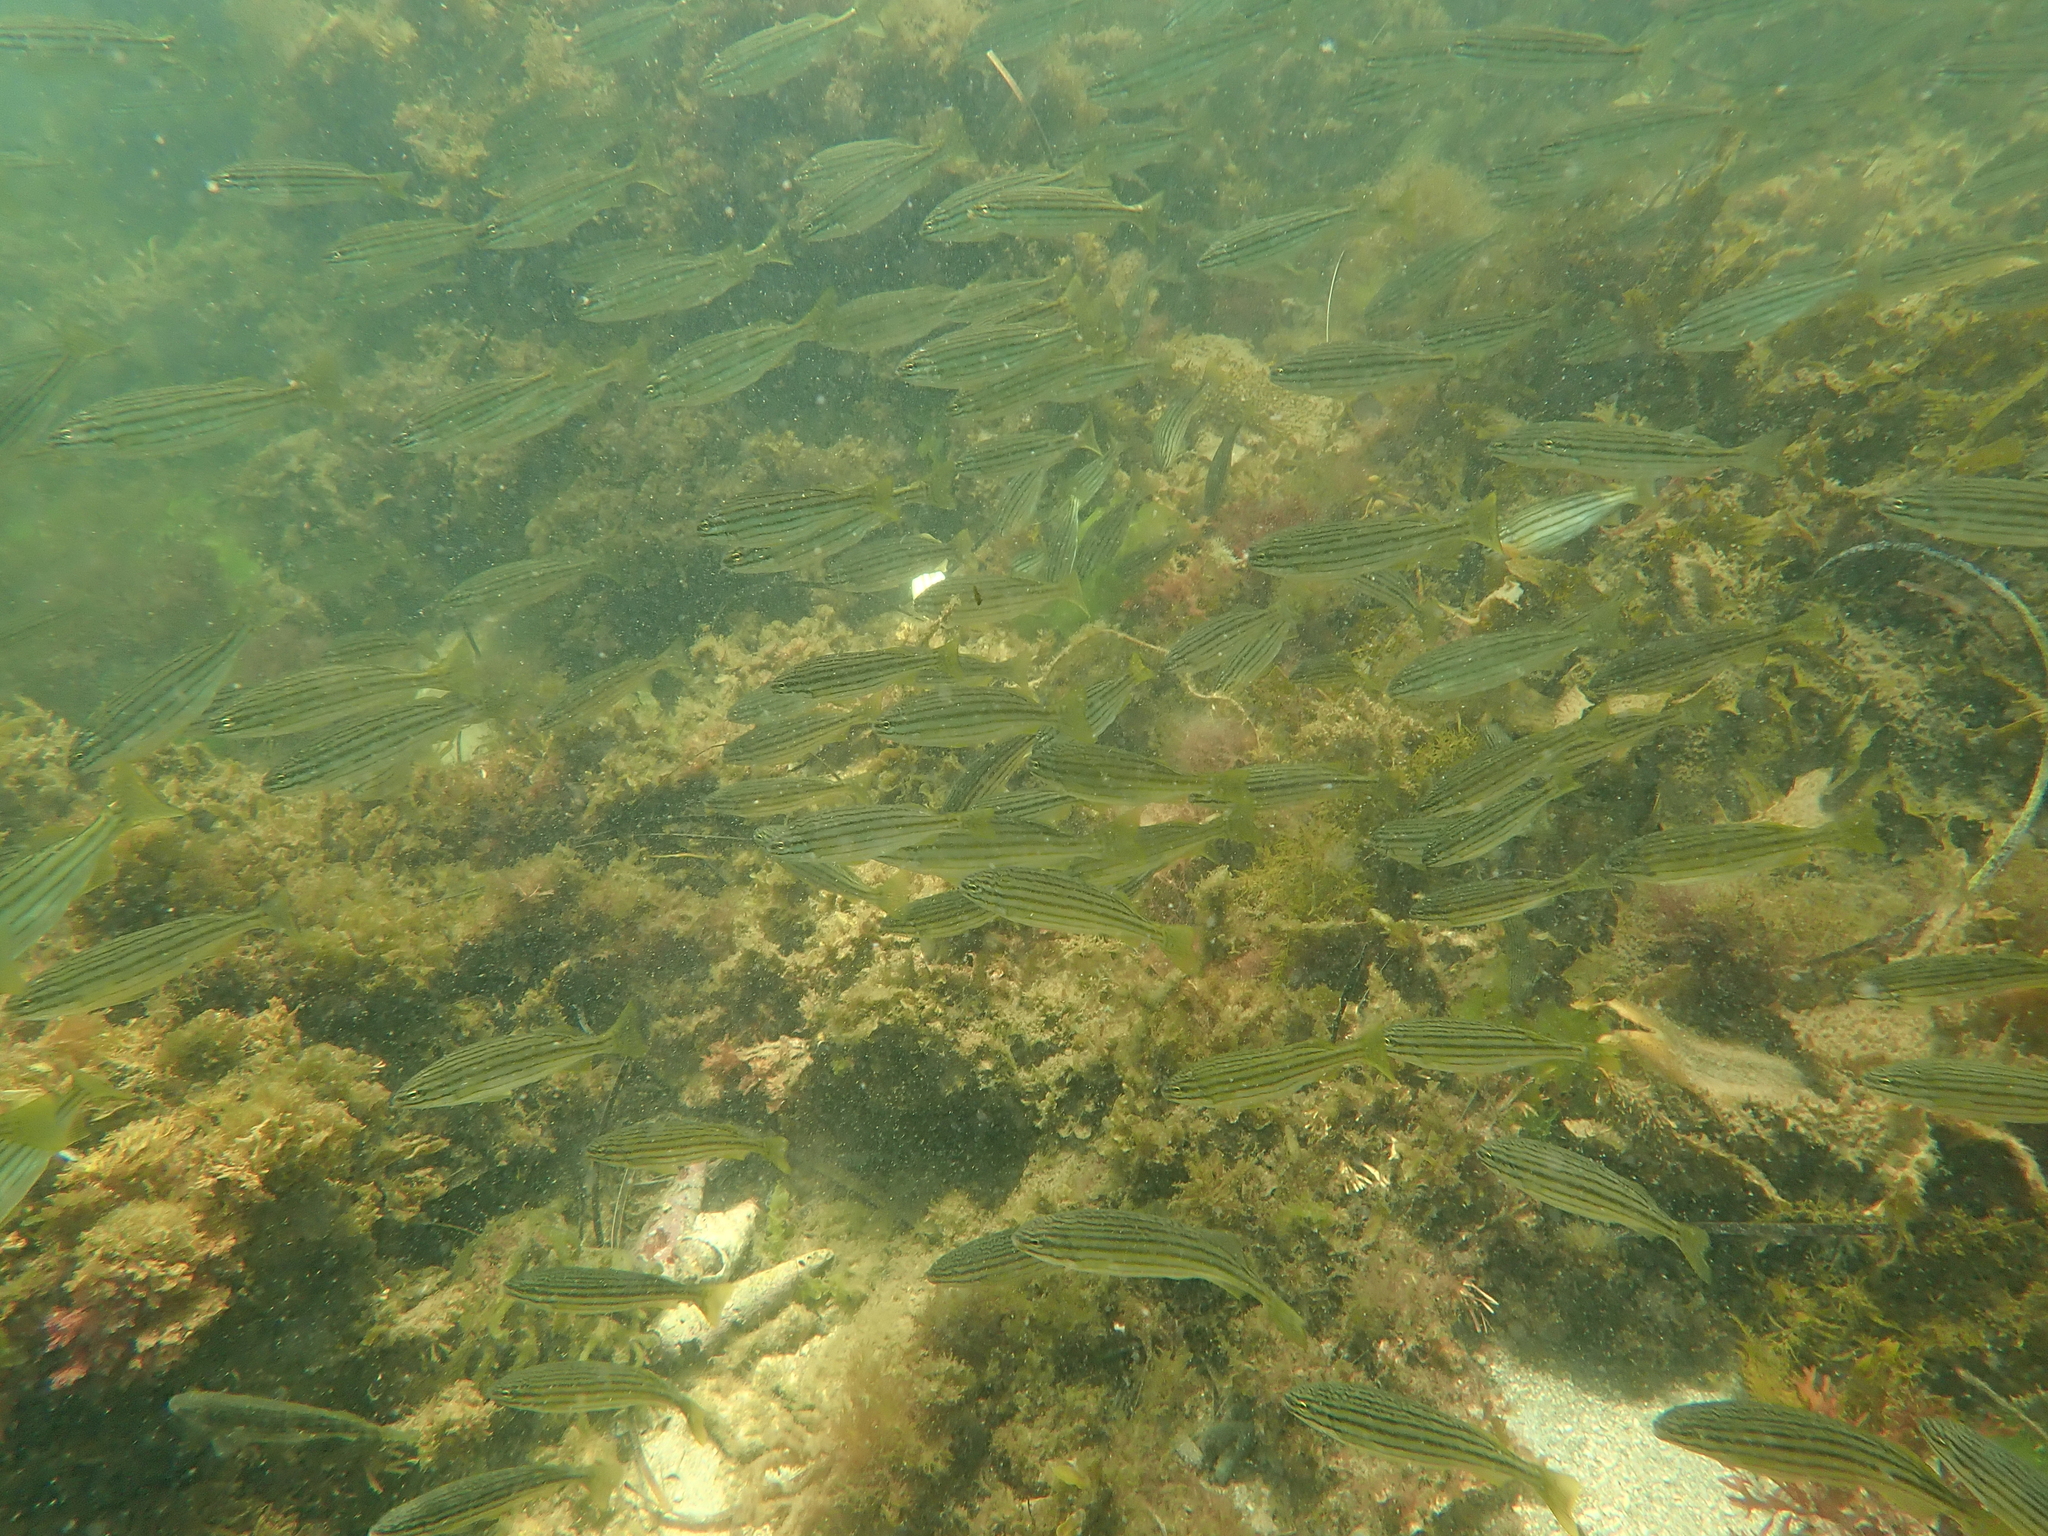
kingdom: Animalia
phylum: Chordata
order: Perciformes
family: Terapontidae
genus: Pelates
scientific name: Pelates octolineatus
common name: Eight-lined trumpeter
